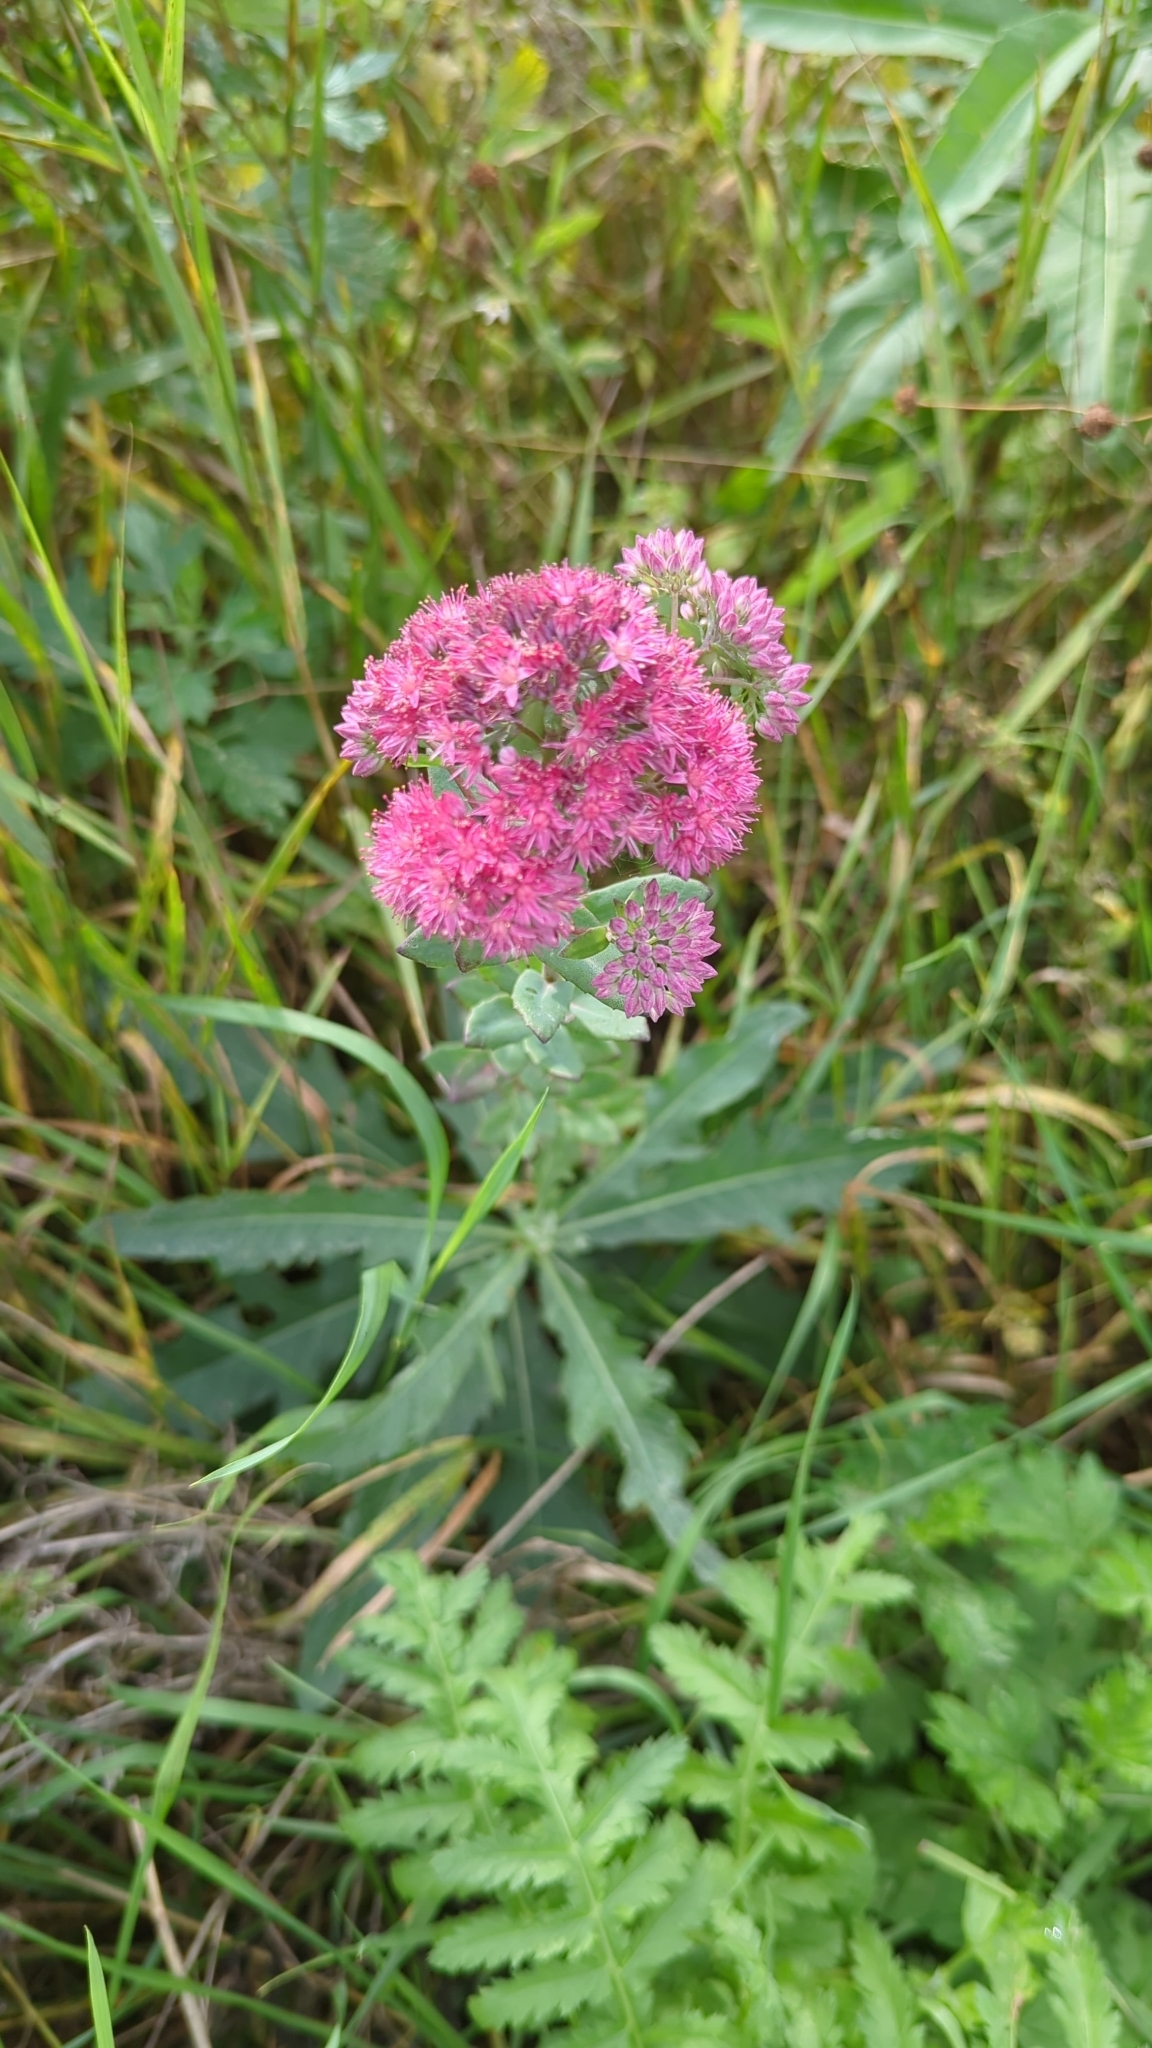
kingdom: Plantae
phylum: Tracheophyta
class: Magnoliopsida
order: Saxifragales
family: Crassulaceae
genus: Hylotelephium
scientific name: Hylotelephium telephium
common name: Live-forever
